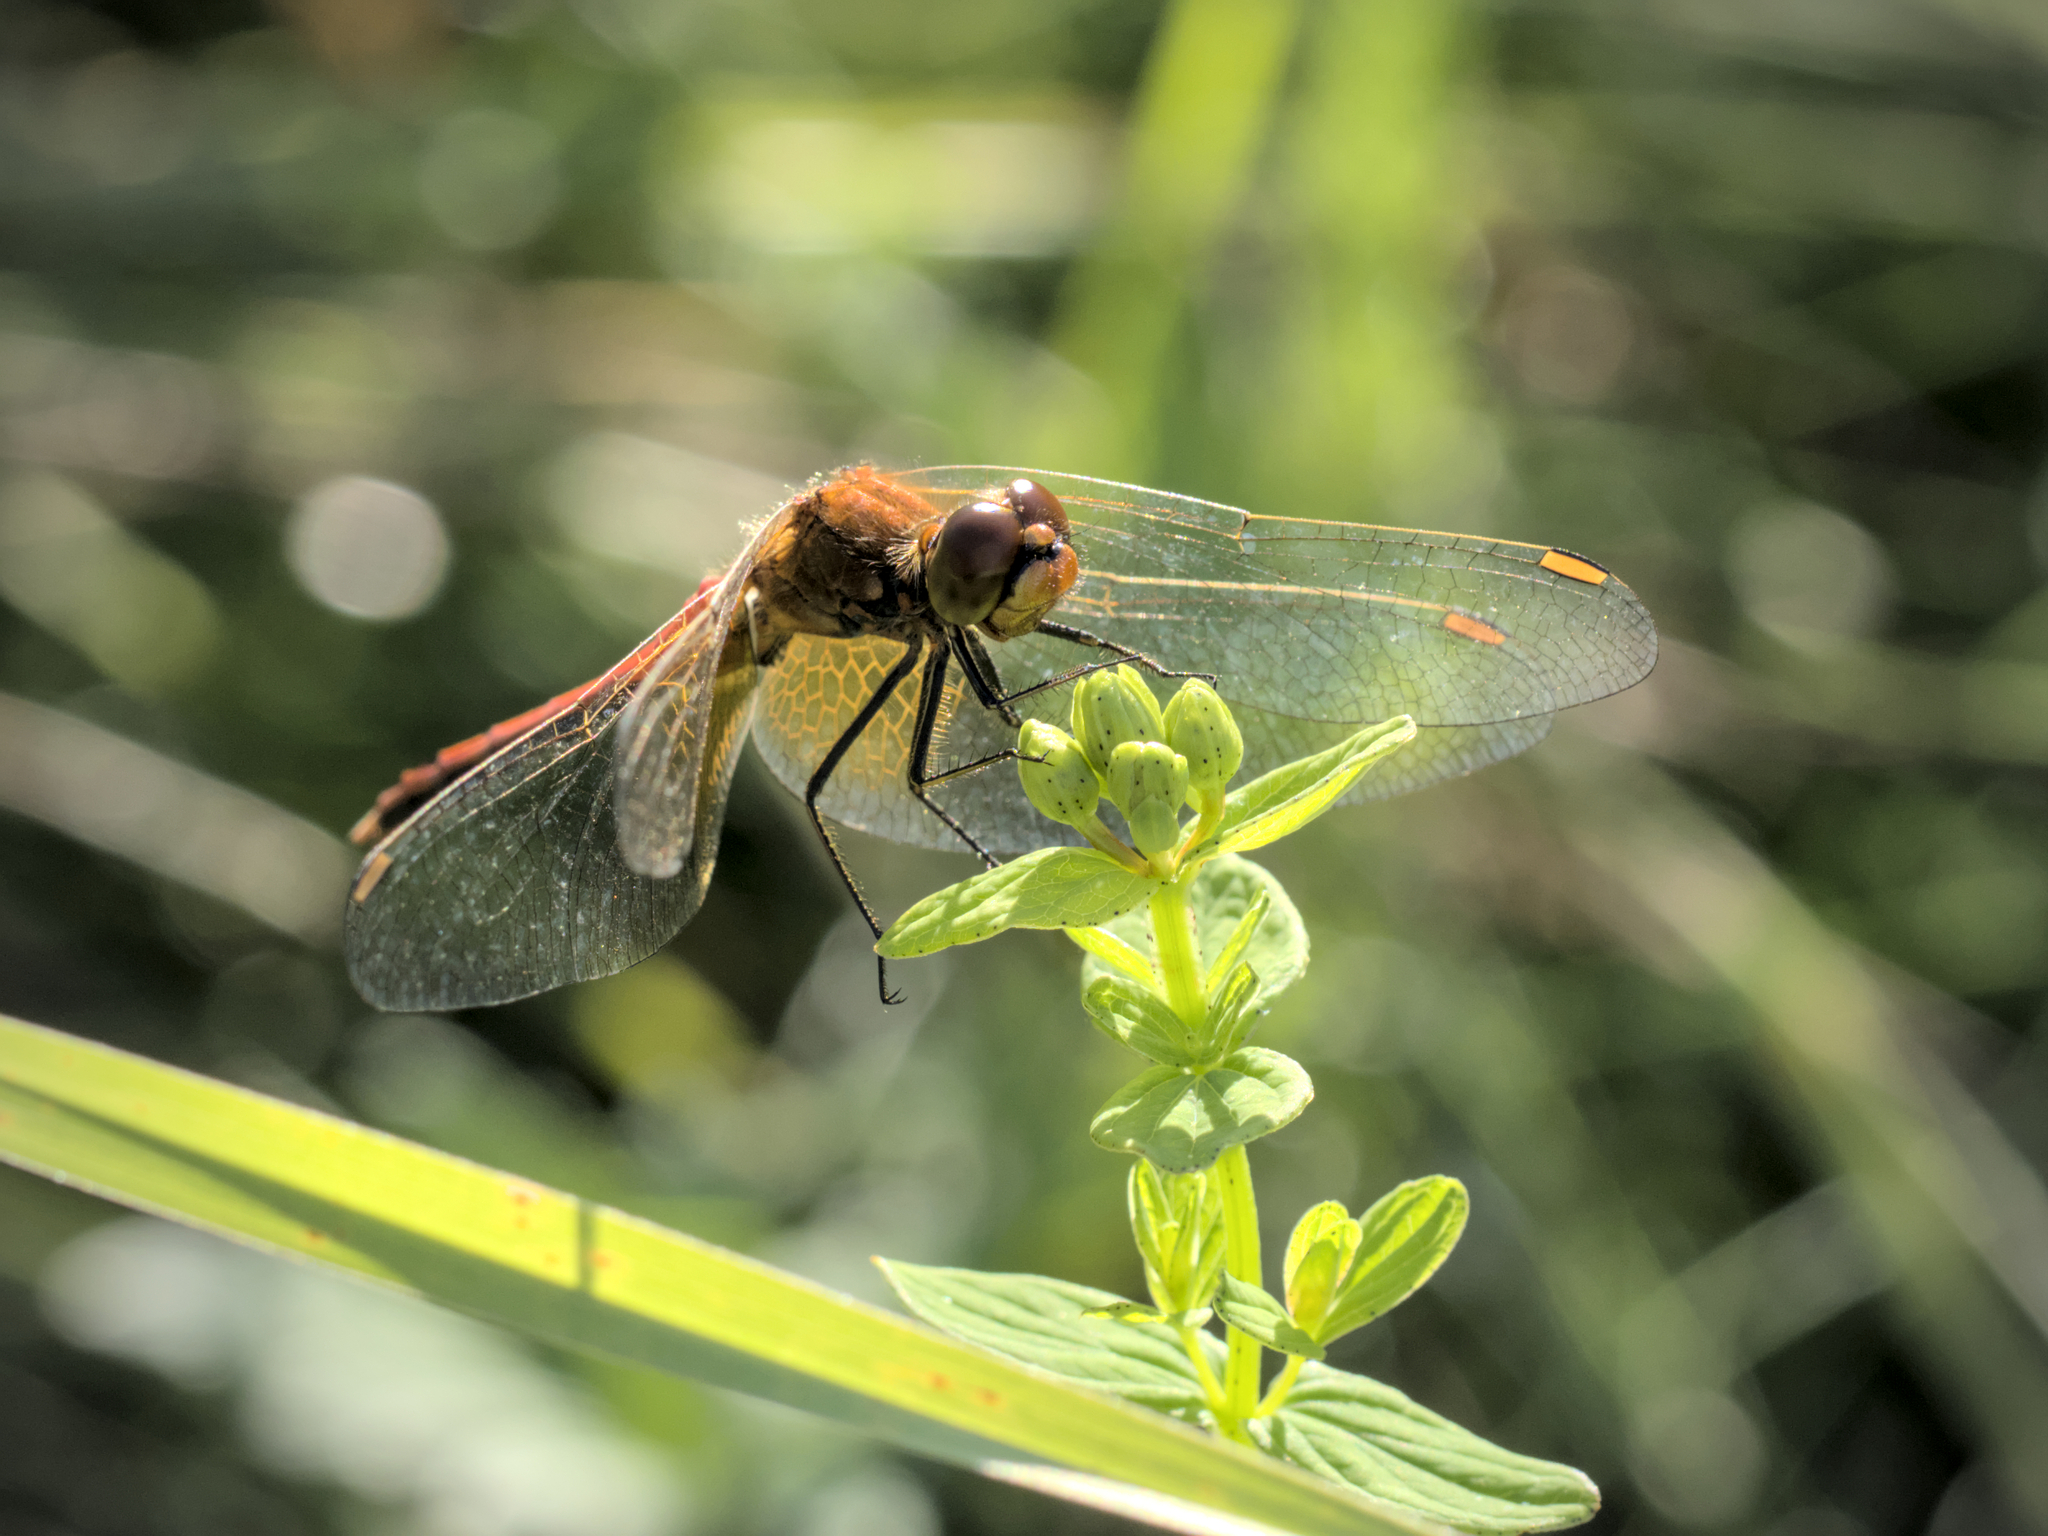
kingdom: Animalia
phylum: Arthropoda
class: Insecta
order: Odonata
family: Libellulidae
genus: Sympetrum
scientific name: Sympetrum flaveolum
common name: Yellow-winged darter
